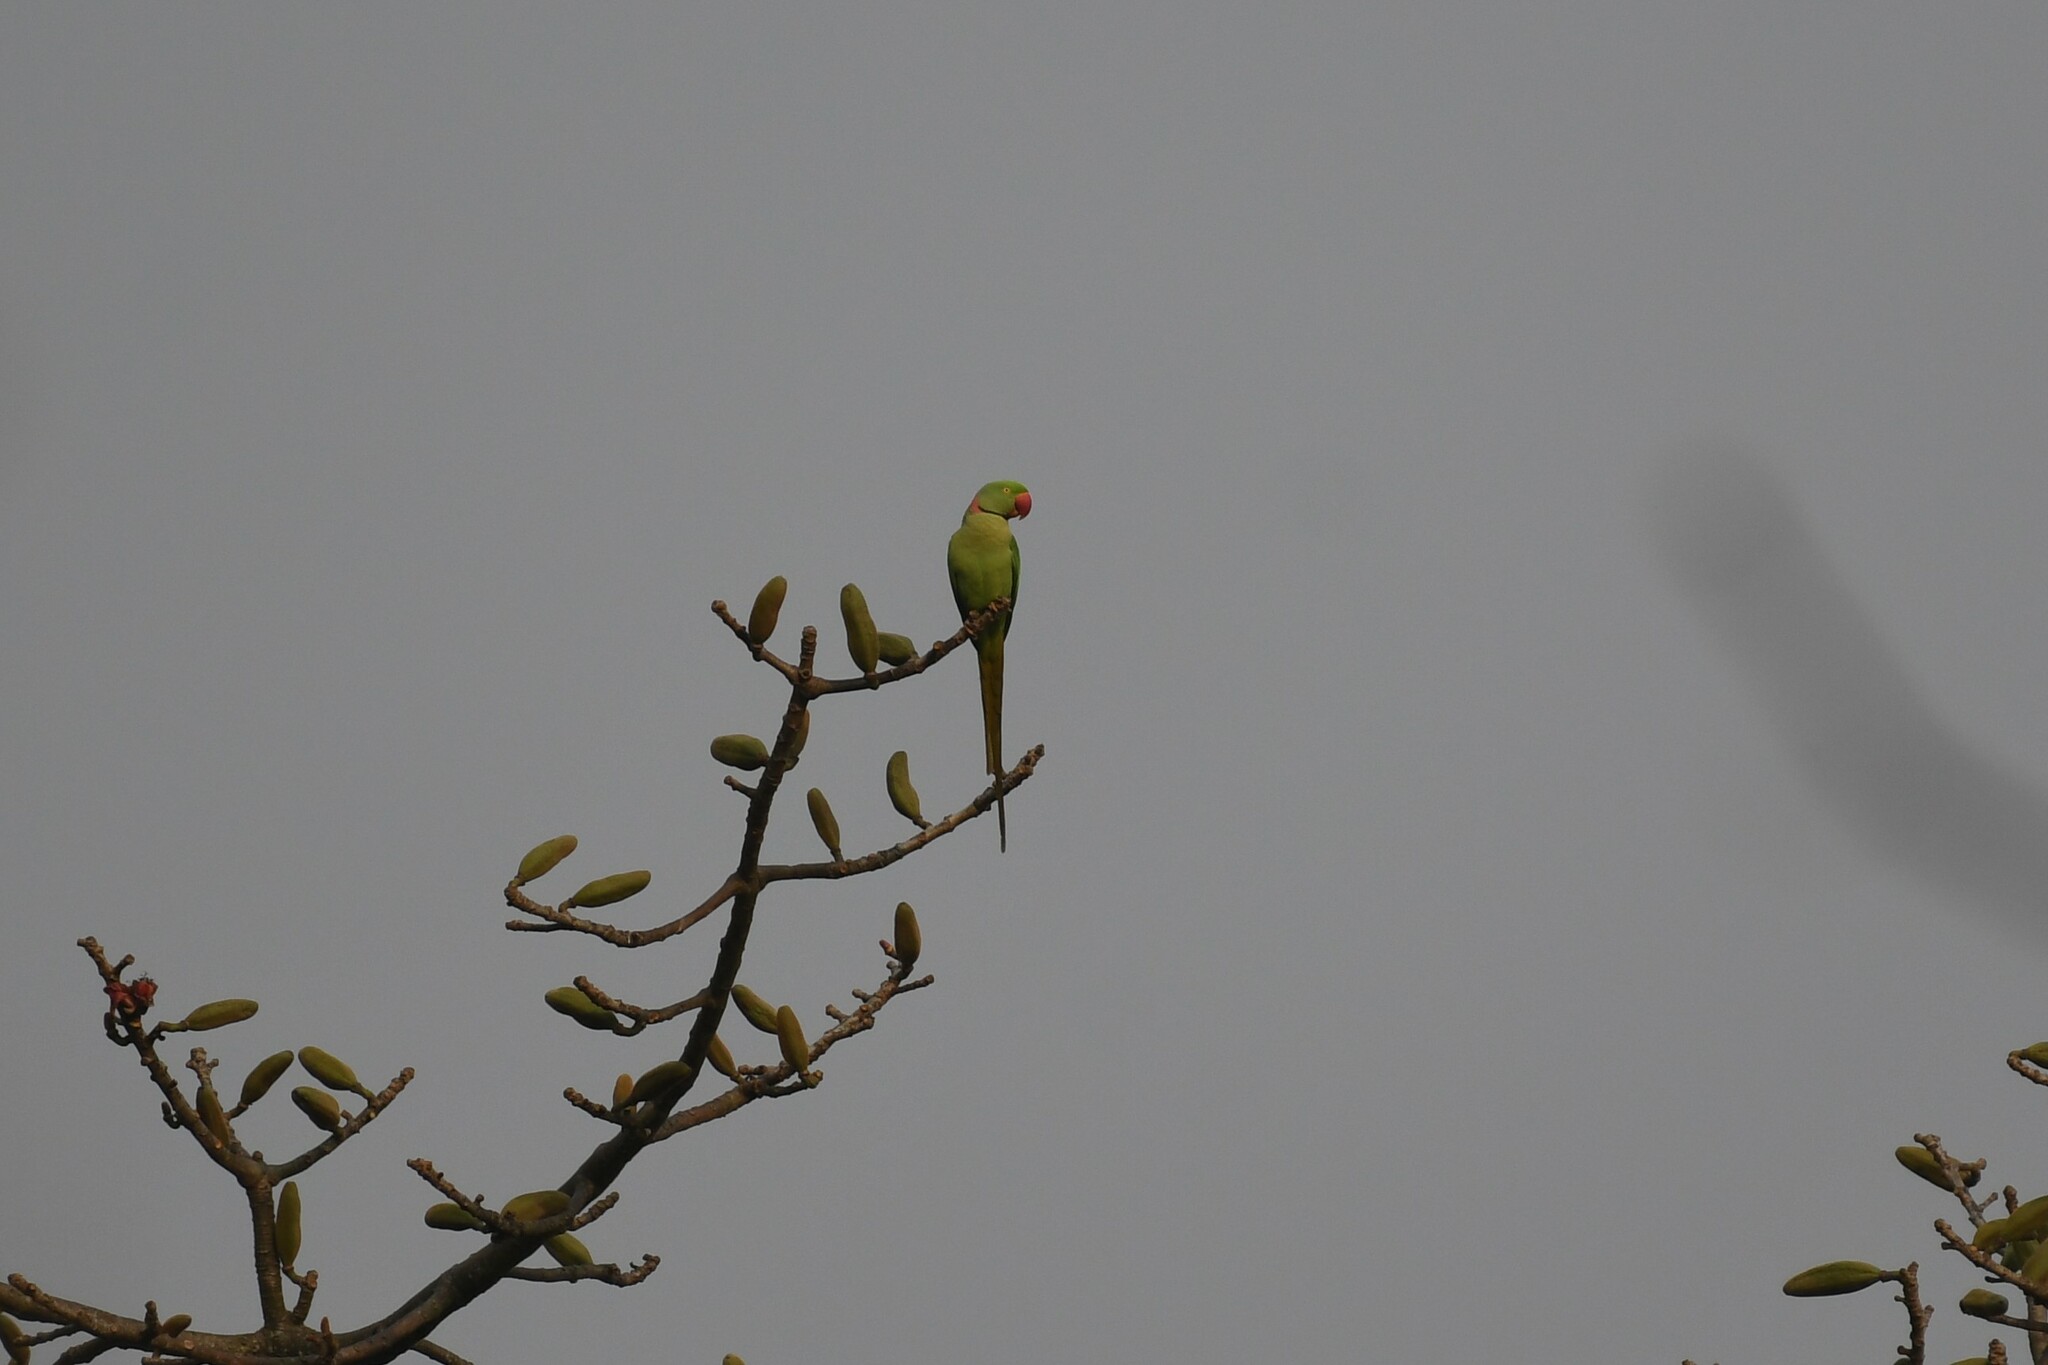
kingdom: Animalia
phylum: Chordata
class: Aves
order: Psittaciformes
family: Psittacidae
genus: Psittacula
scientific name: Psittacula krameri
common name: Rose-ringed parakeet
